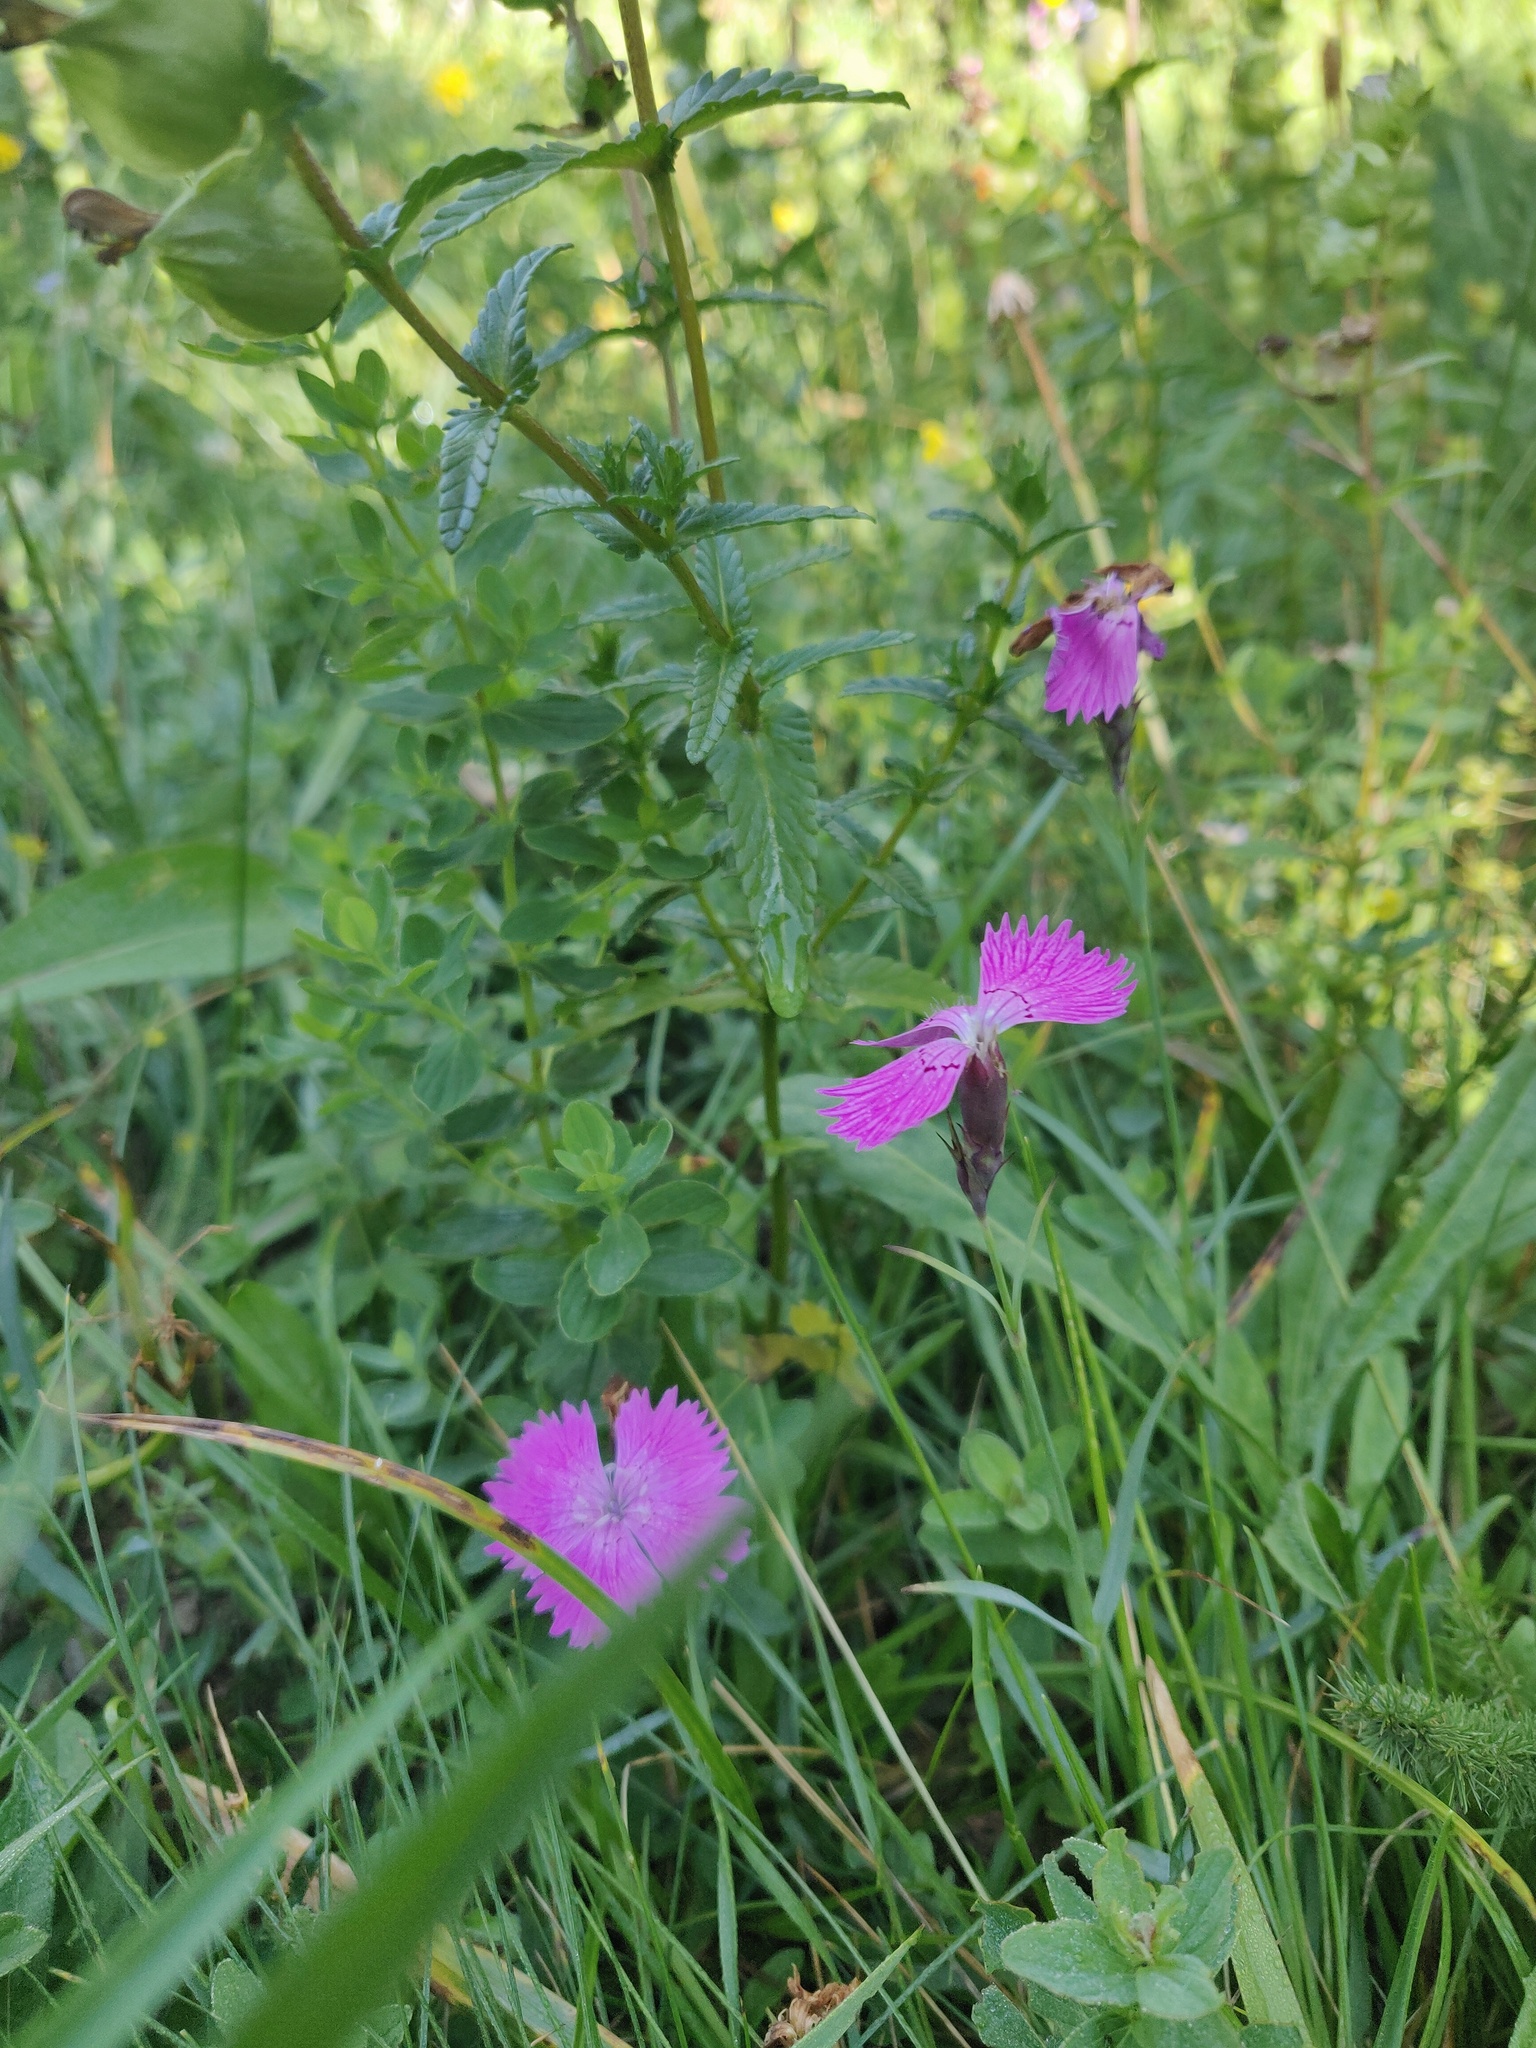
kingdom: Plantae
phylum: Tracheophyta
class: Magnoliopsida
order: Caryophyllales
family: Caryophyllaceae
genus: Dianthus
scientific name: Dianthus seguieri
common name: Ragged pink
